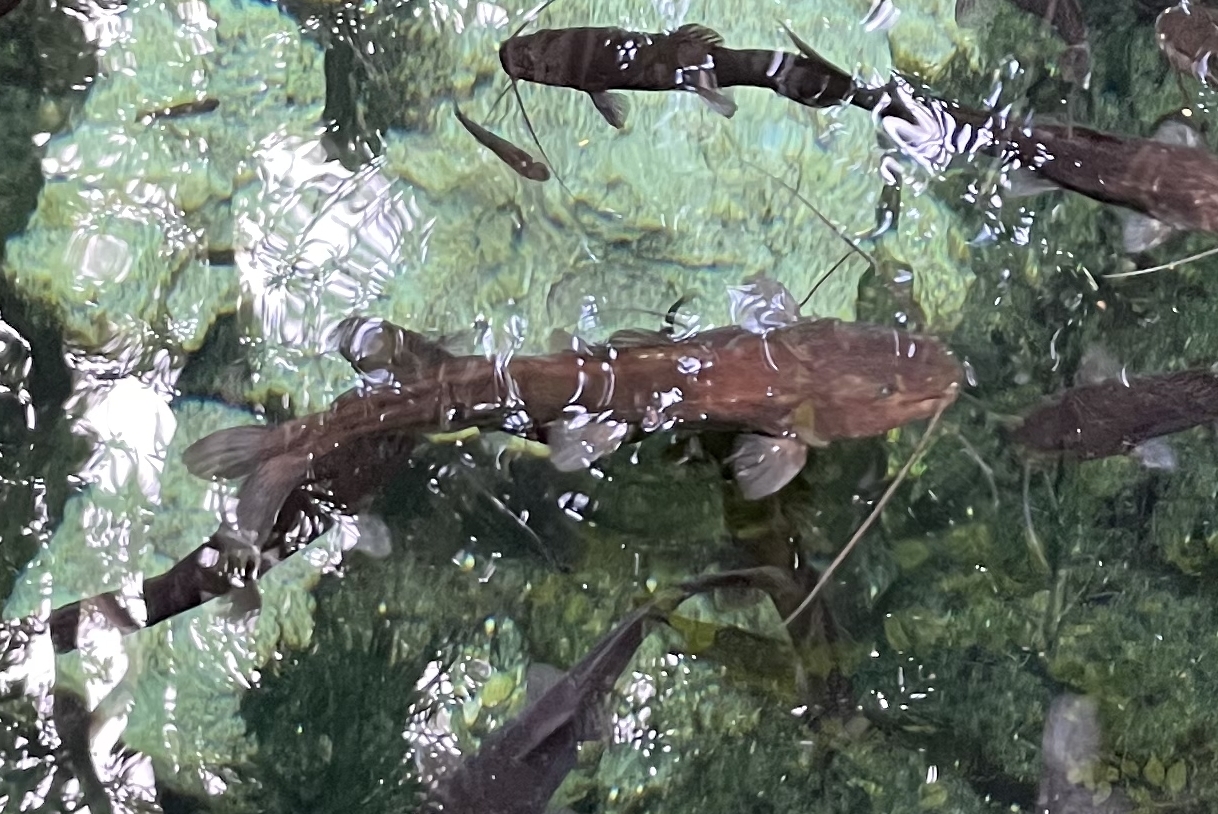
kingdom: Animalia
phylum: Chordata
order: Siluriformes
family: Heptapteridae
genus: Rhamdia
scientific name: Rhamdia guatemalensis
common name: Pale catfish
